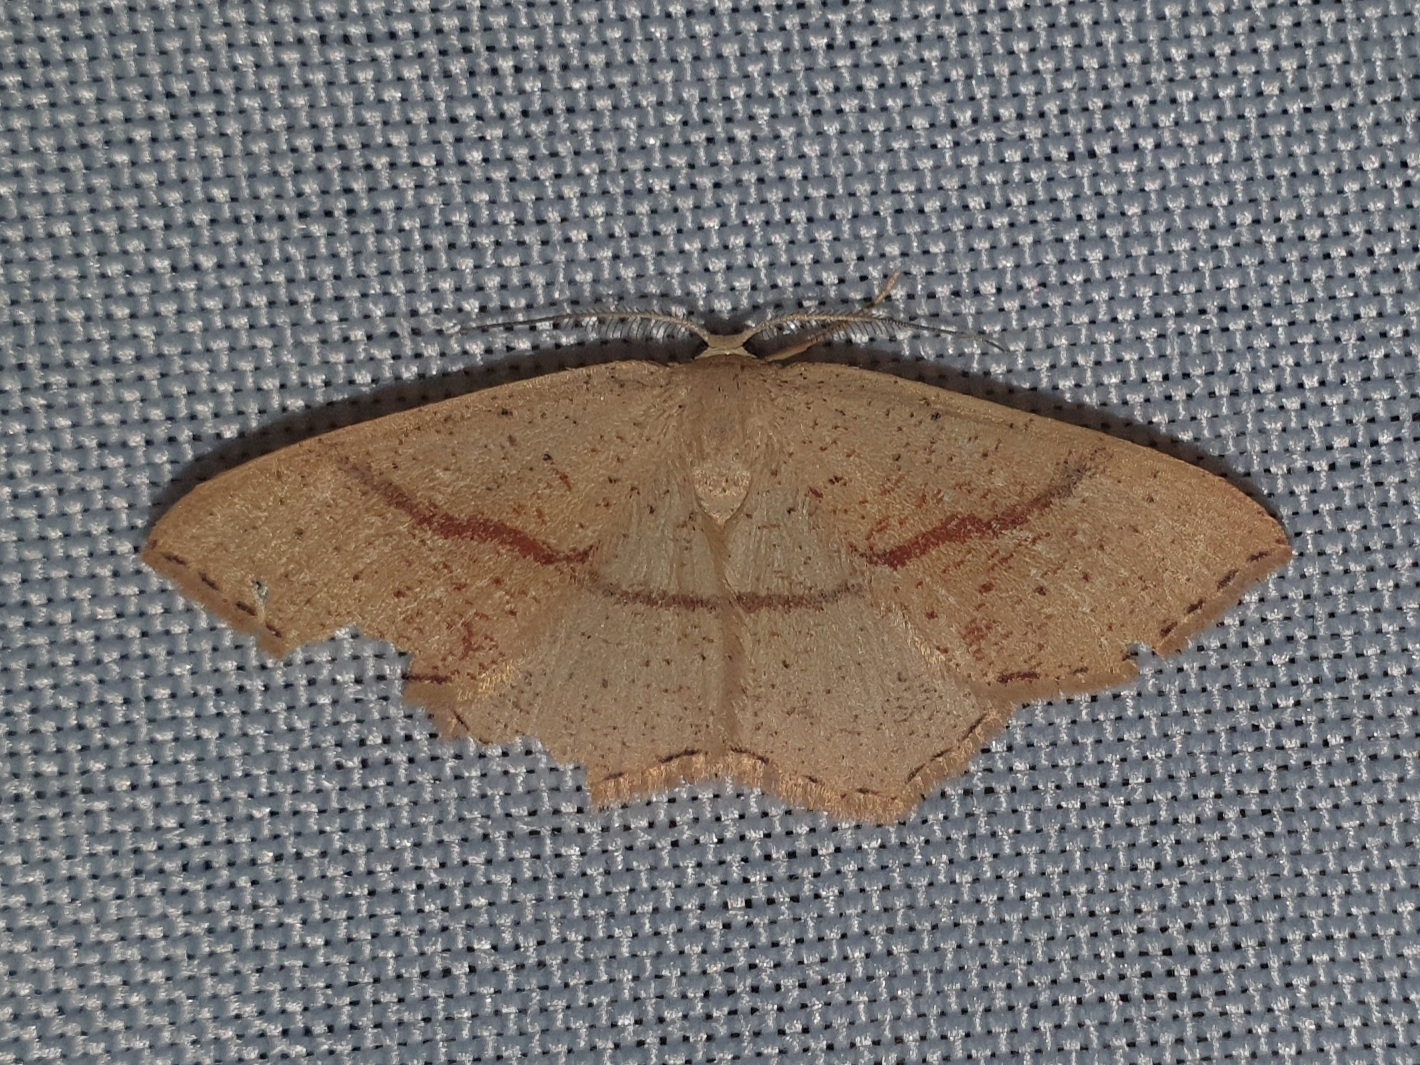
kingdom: Animalia
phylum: Arthropoda
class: Insecta
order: Lepidoptera
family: Geometridae
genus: Cyclophora
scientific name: Cyclophora punctaria
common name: Maiden's blush
